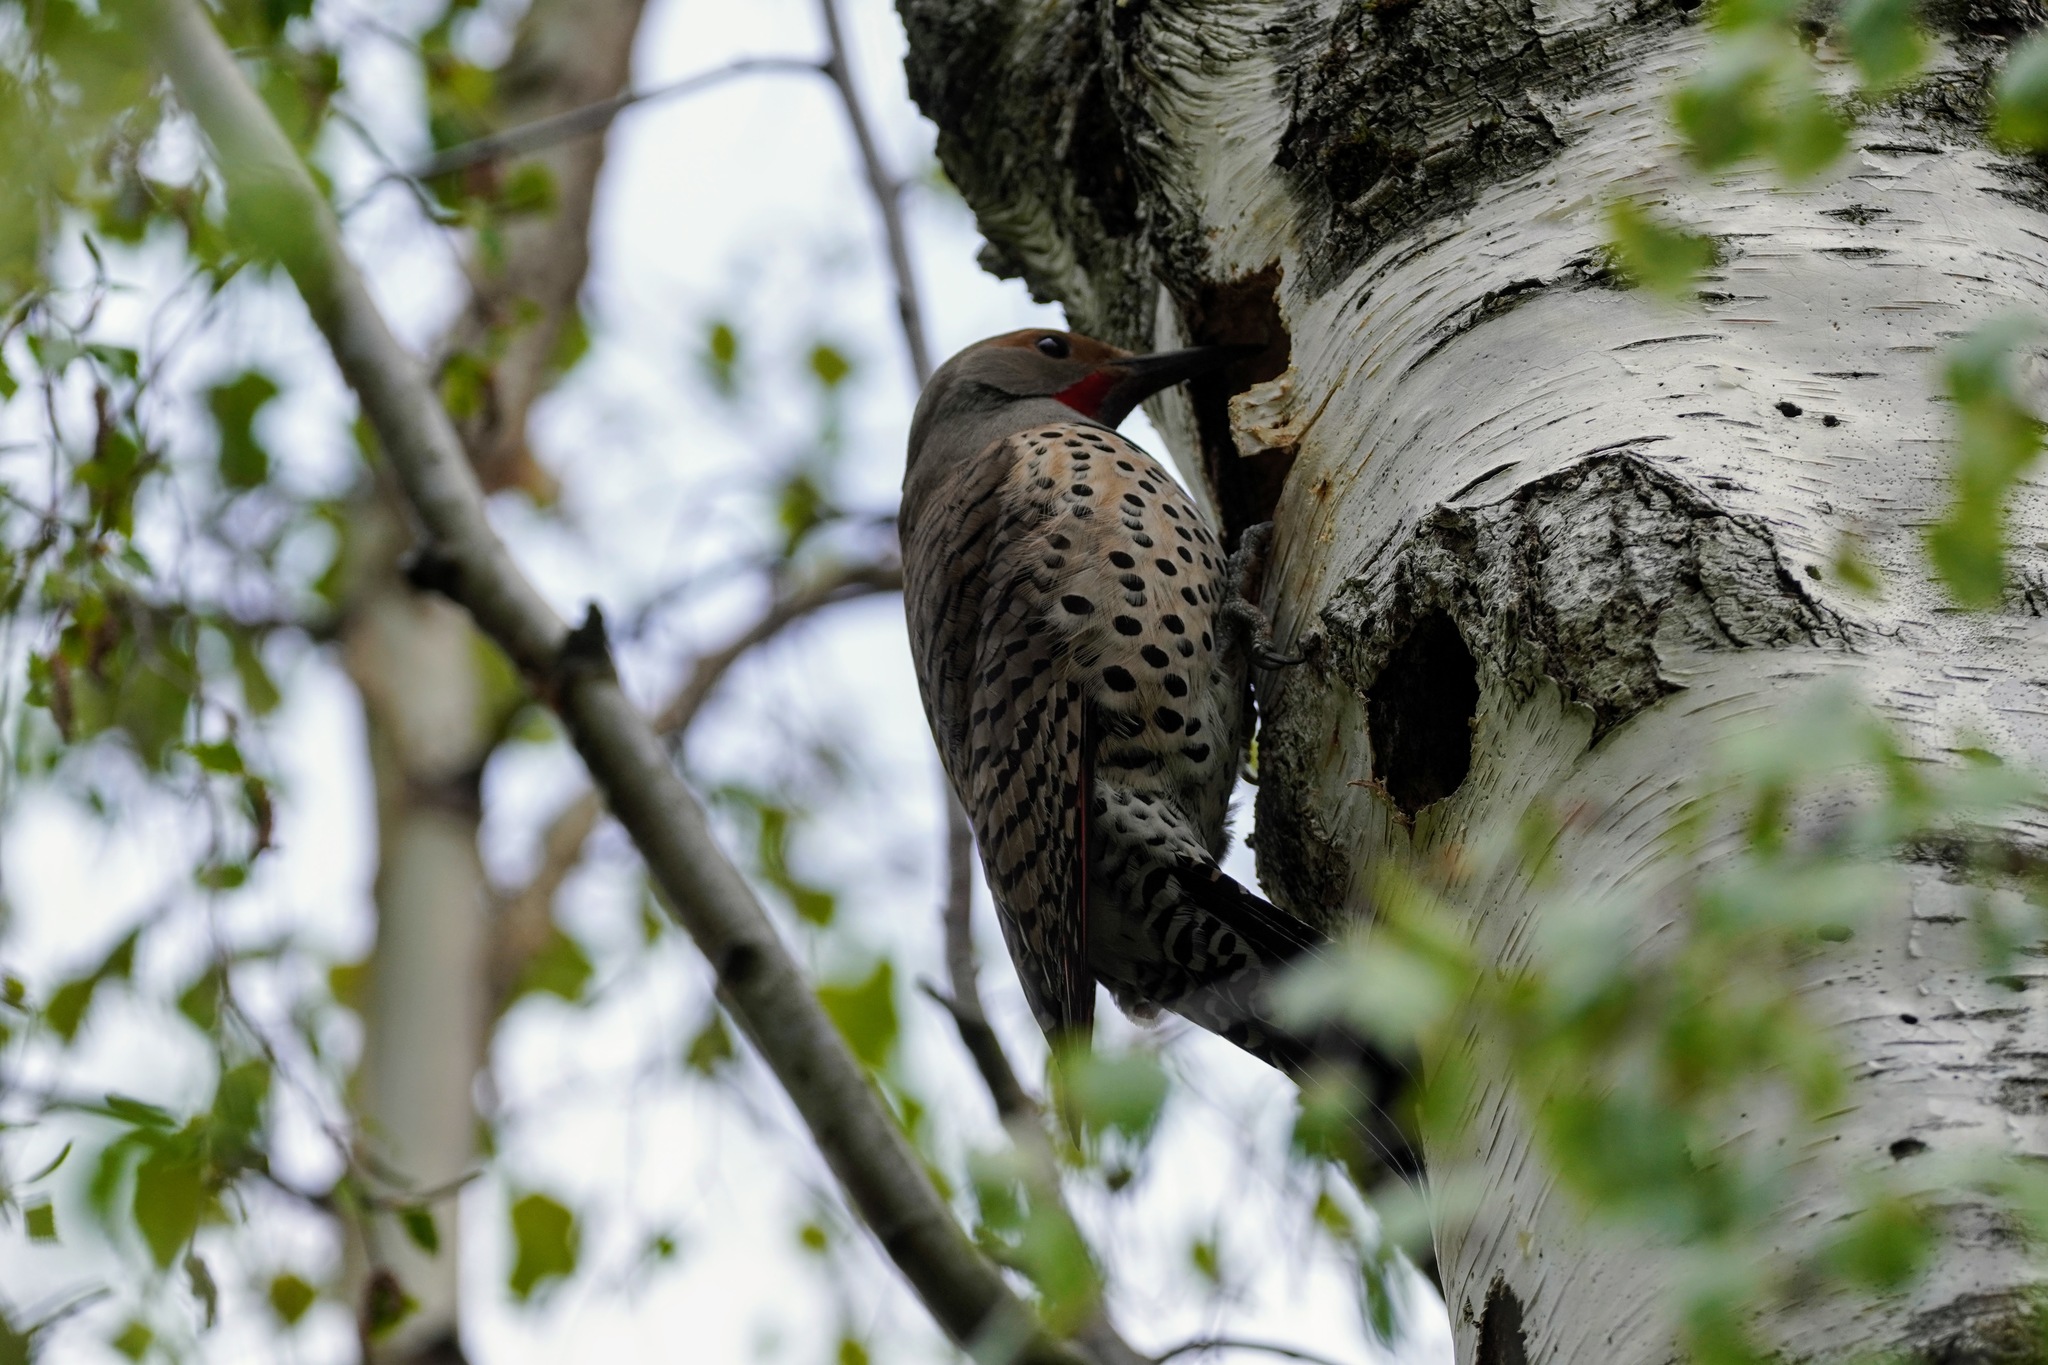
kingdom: Animalia
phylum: Chordata
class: Aves
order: Piciformes
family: Picidae
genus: Colaptes
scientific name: Colaptes auratus
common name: Northern flicker
